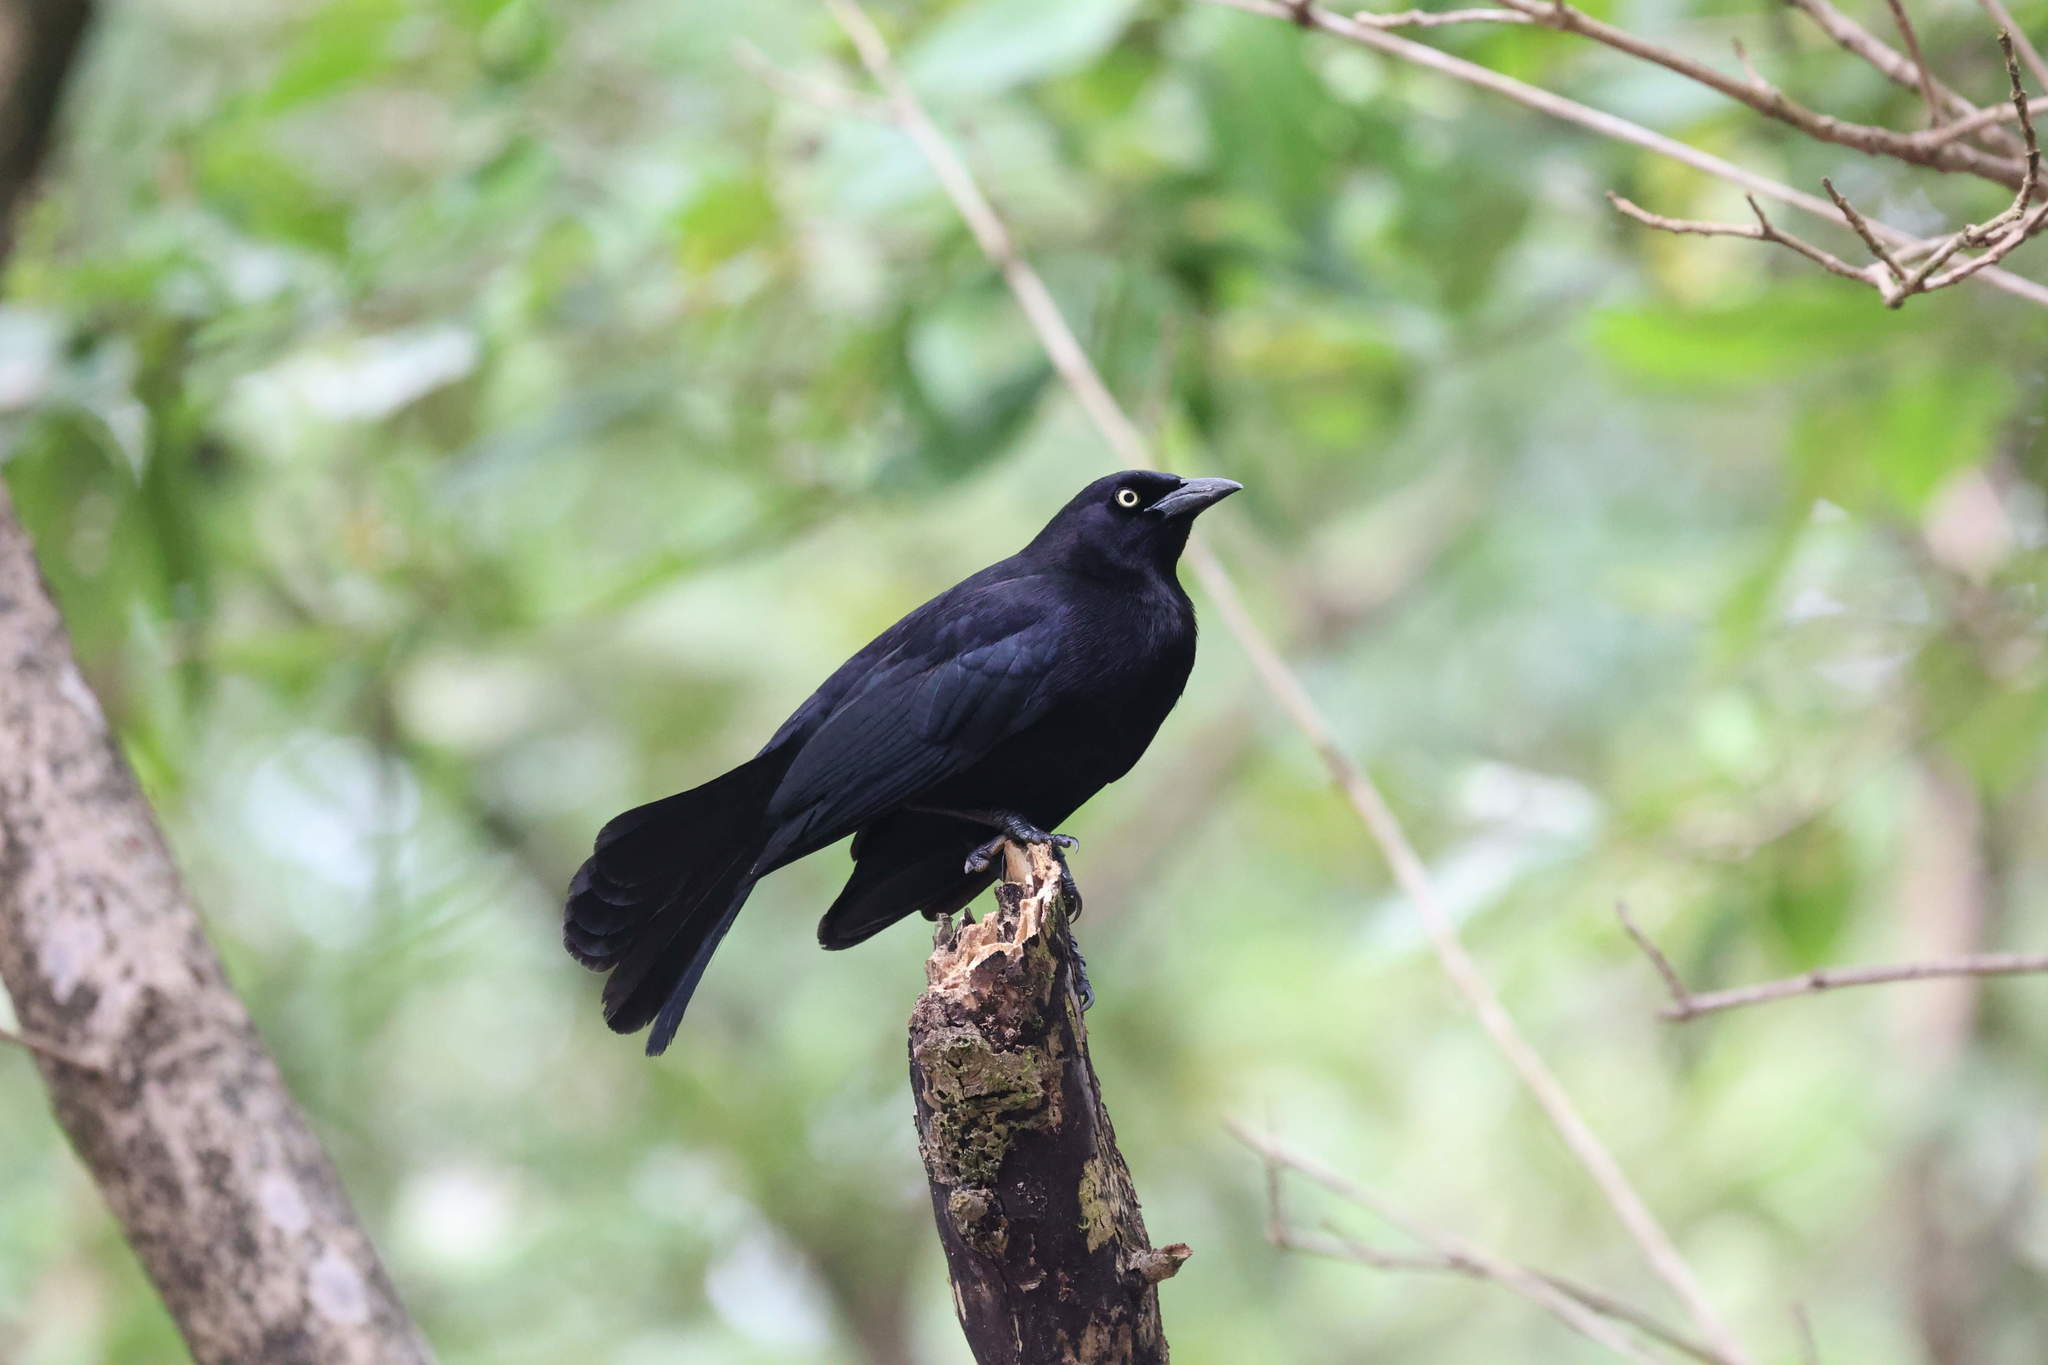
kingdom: Animalia
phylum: Chordata
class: Aves
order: Passeriformes
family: Icteridae
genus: Quiscalus
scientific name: Quiscalus lugubris
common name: Carib grackle
